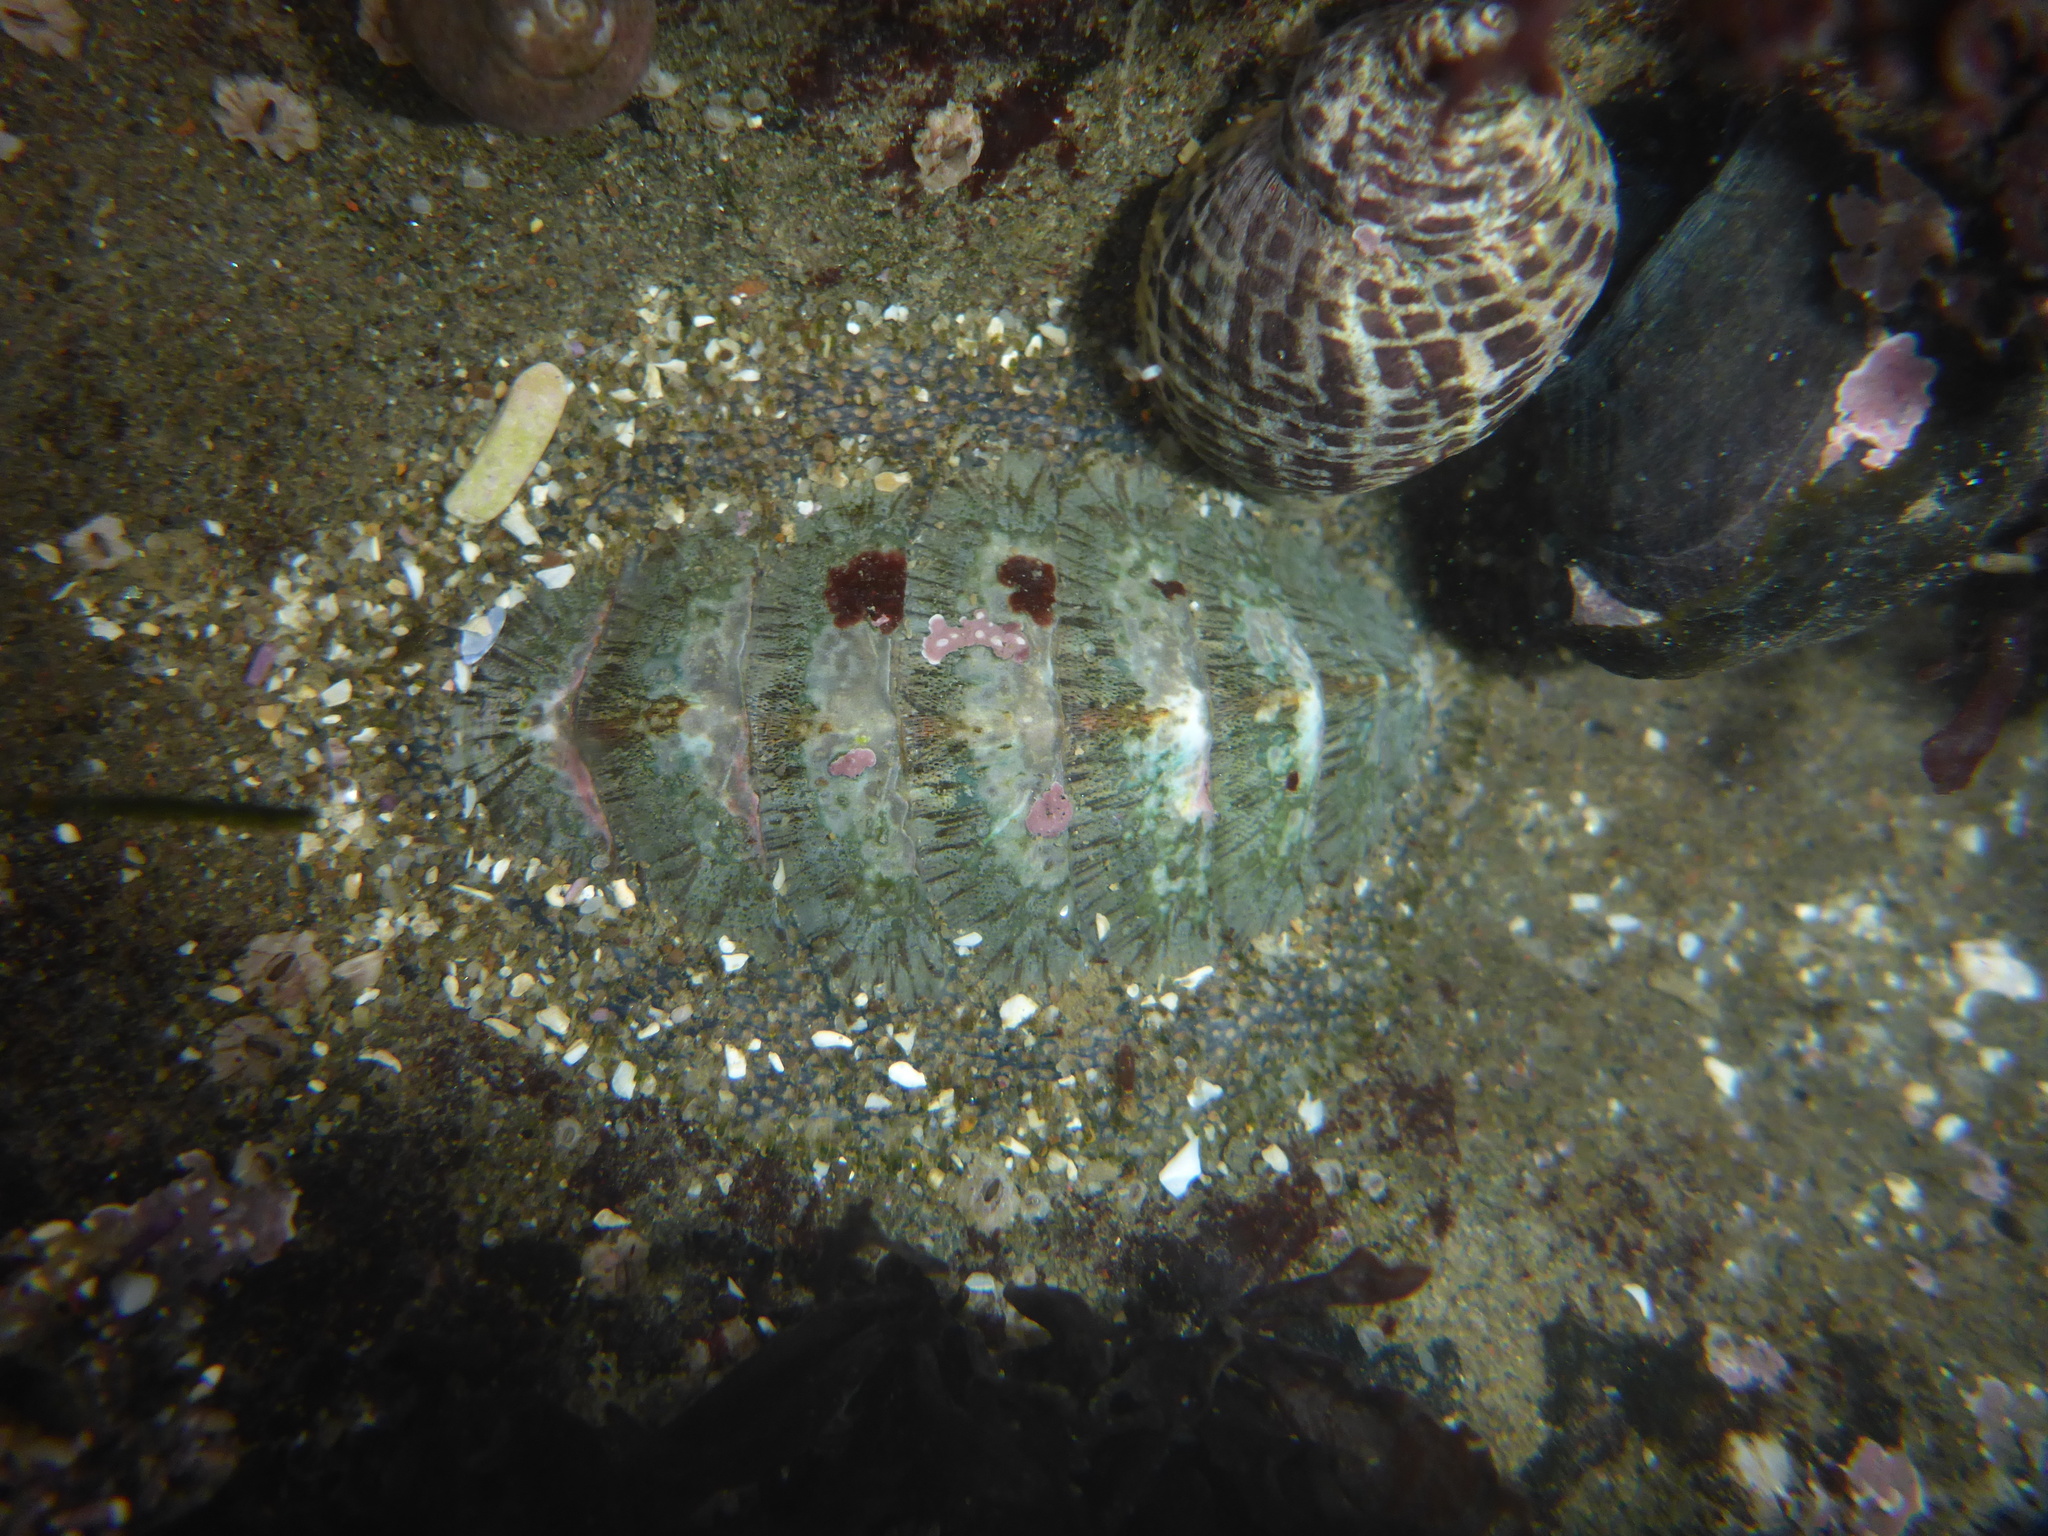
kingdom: Animalia
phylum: Mollusca
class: Polyplacophora
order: Chitonida
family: Mopaliidae
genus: Mopalia
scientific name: Mopalia lignosa
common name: Woody chiton
